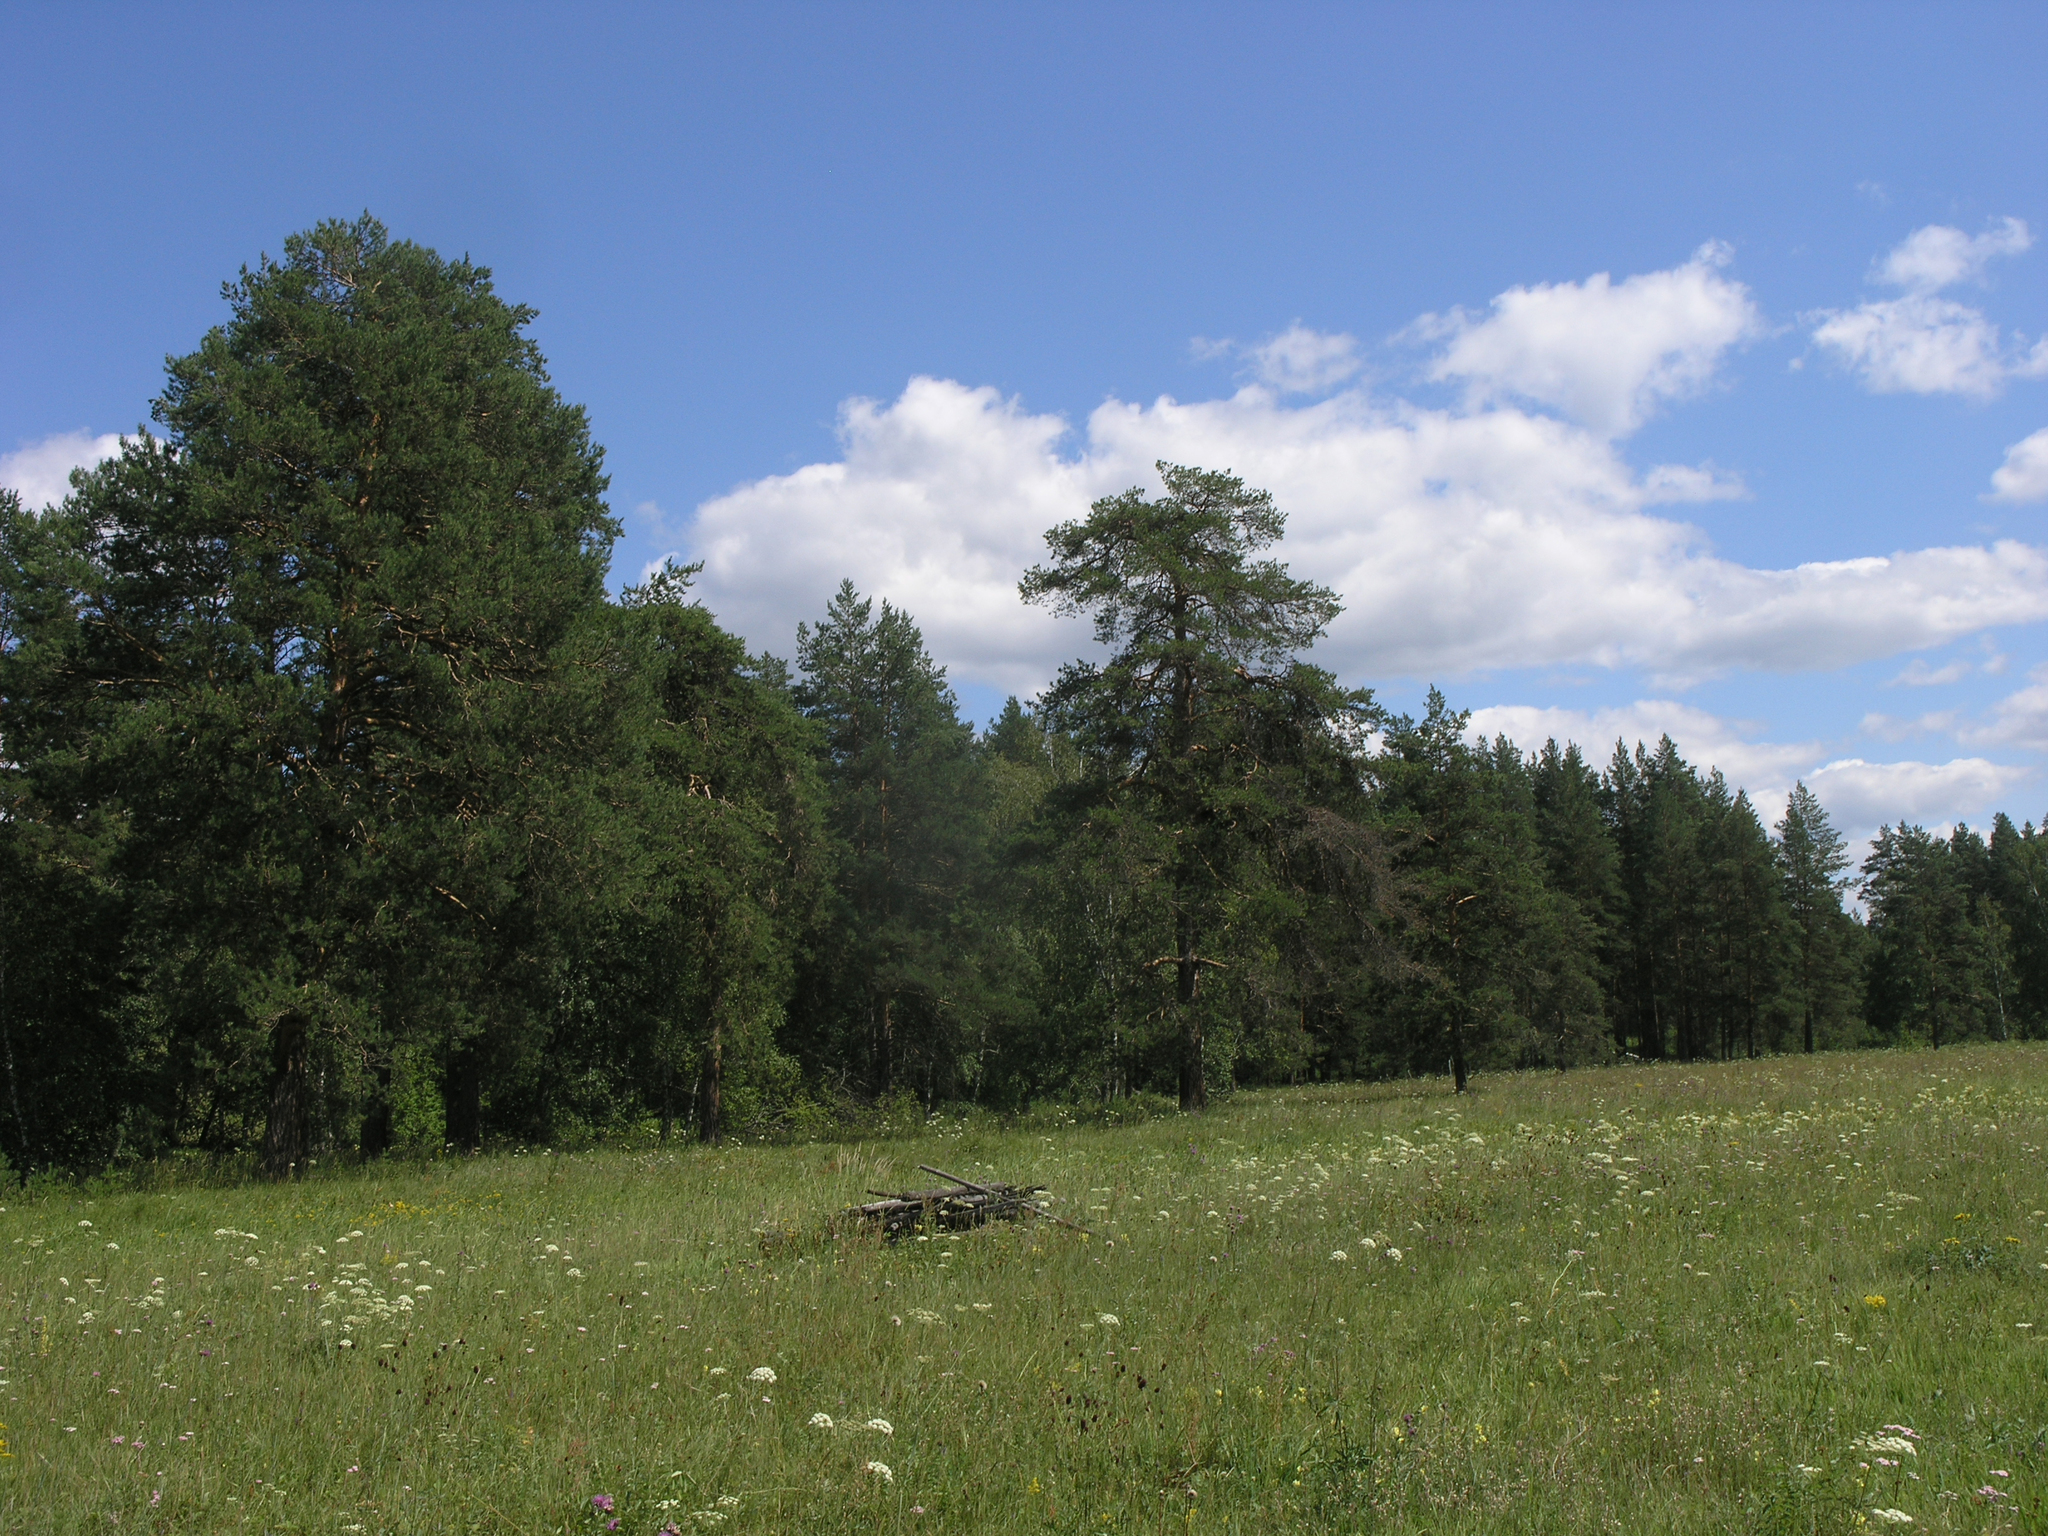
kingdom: Plantae
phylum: Tracheophyta
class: Pinopsida
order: Pinales
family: Pinaceae
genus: Pinus
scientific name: Pinus sylvestris
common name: Scots pine
